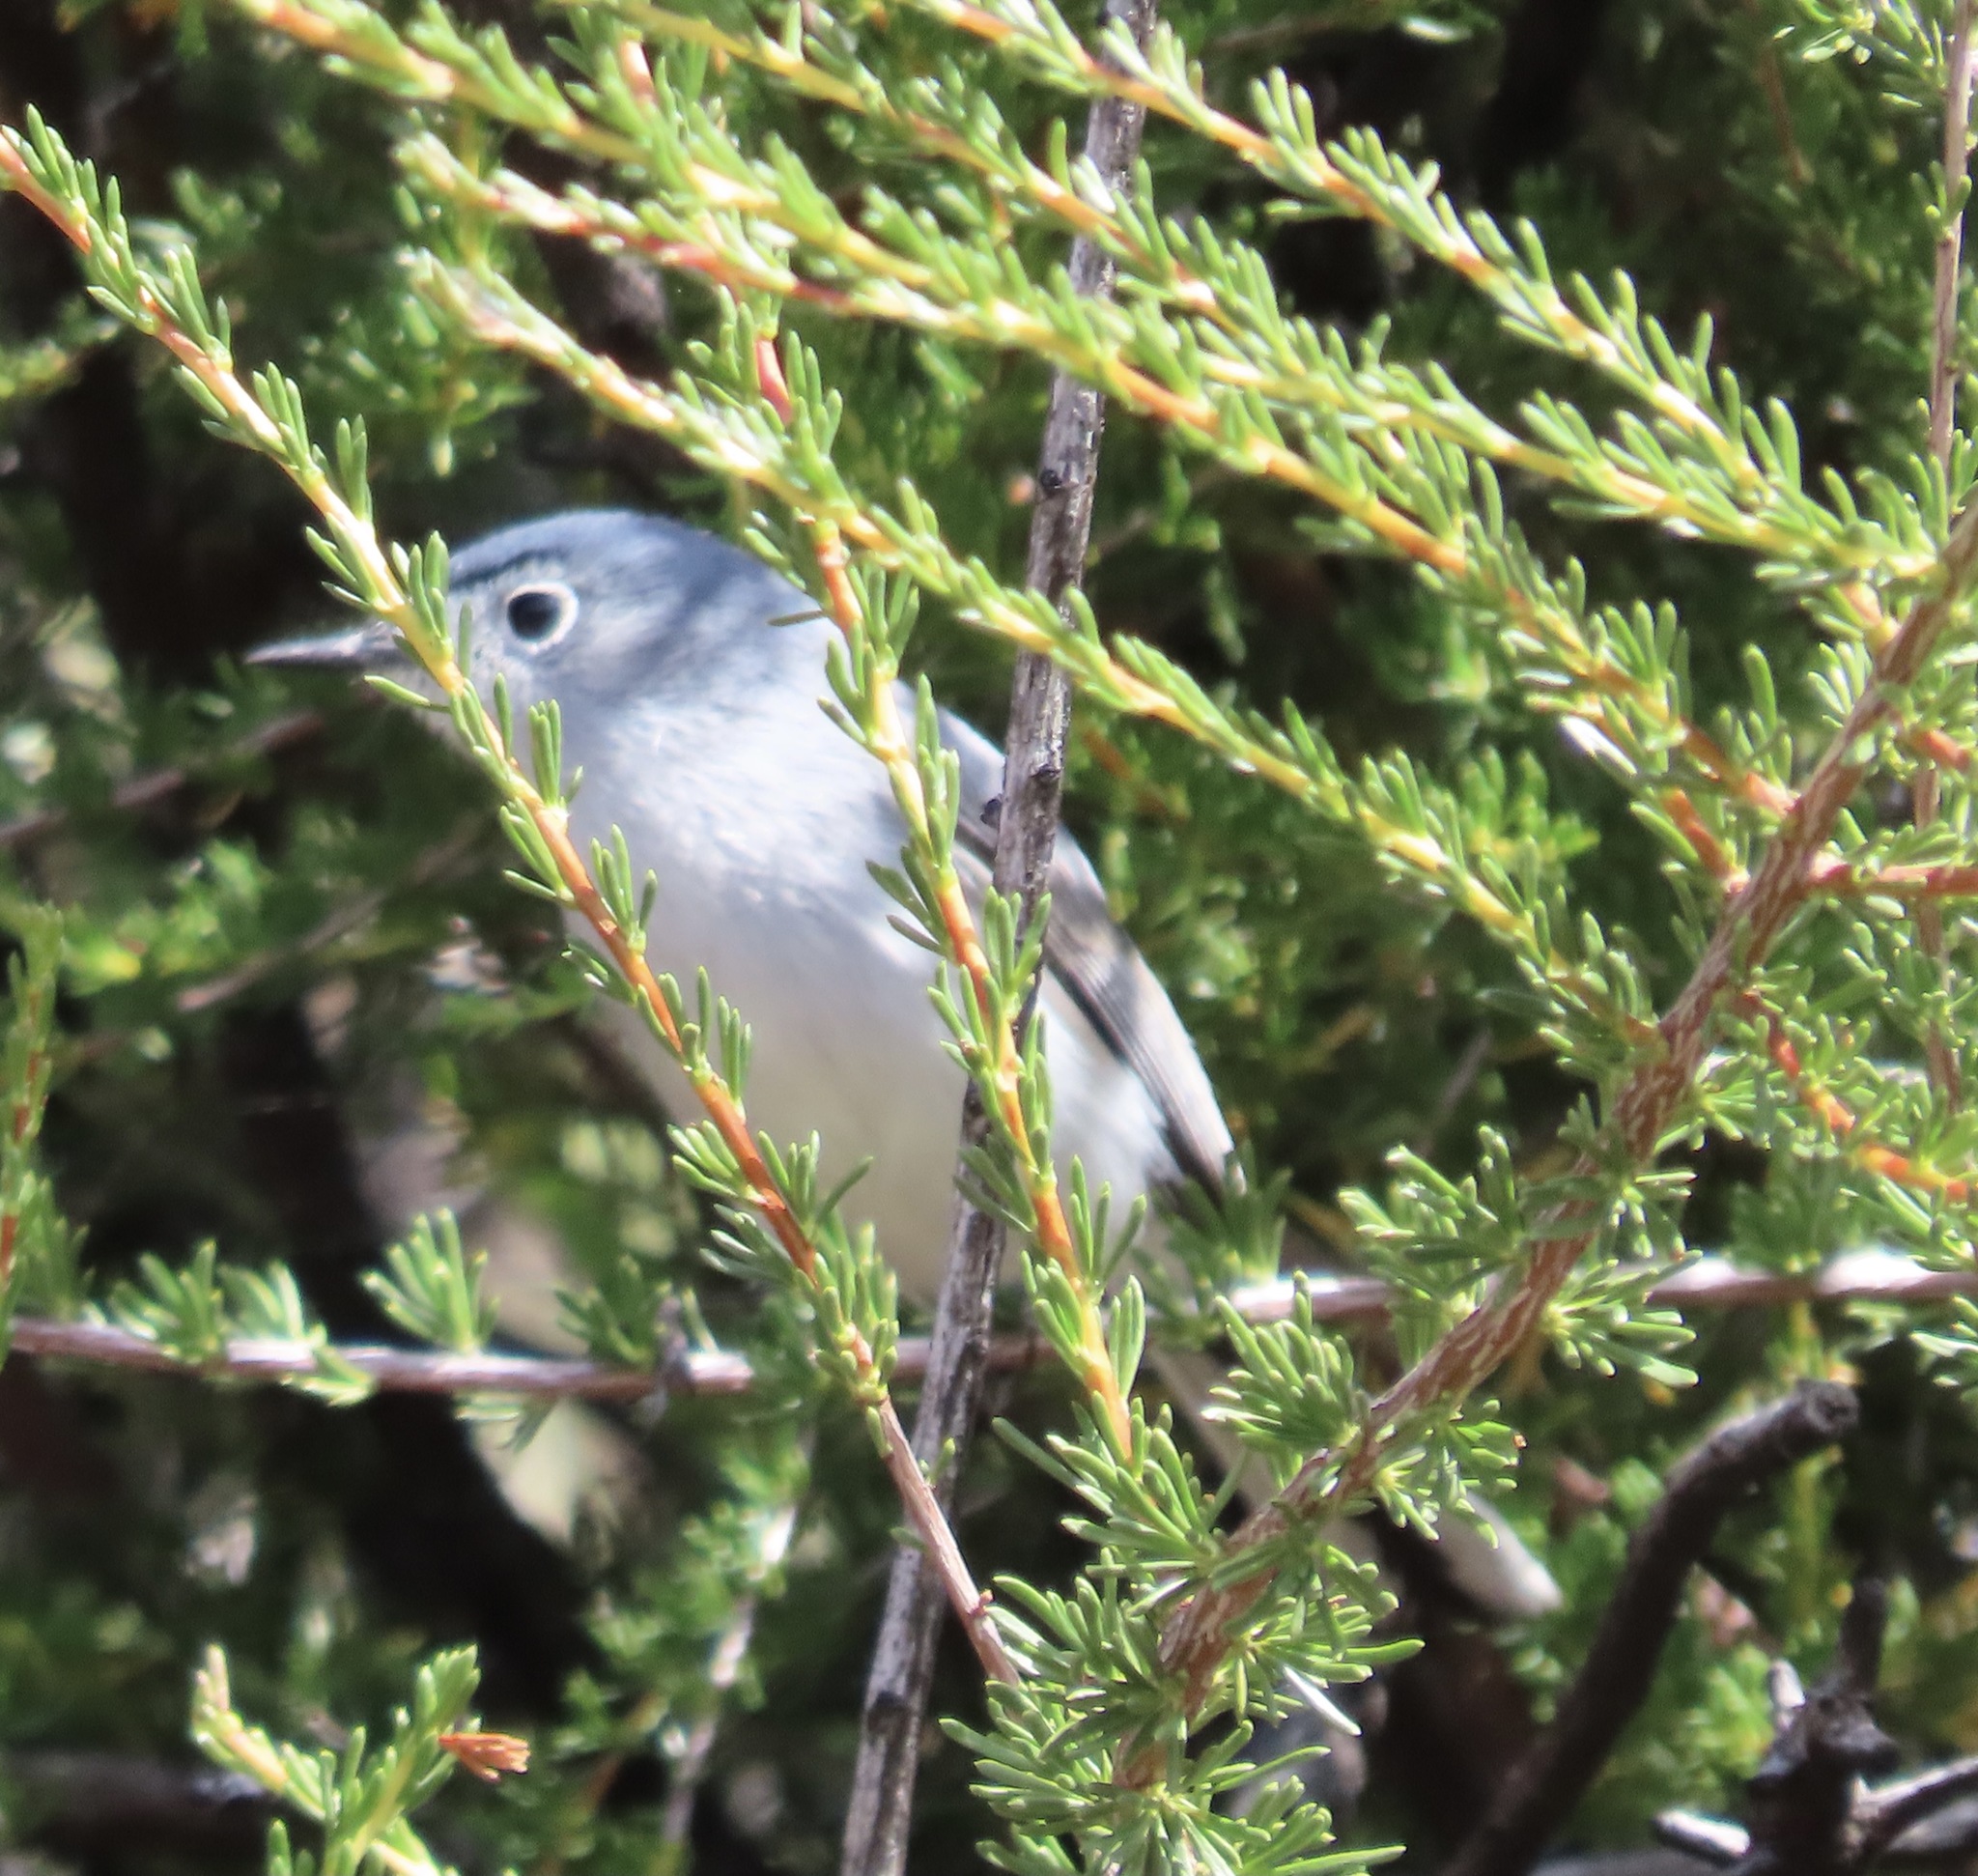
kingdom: Animalia
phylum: Chordata
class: Aves
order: Passeriformes
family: Polioptilidae
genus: Polioptila
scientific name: Polioptila caerulea
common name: Blue-gray gnatcatcher
